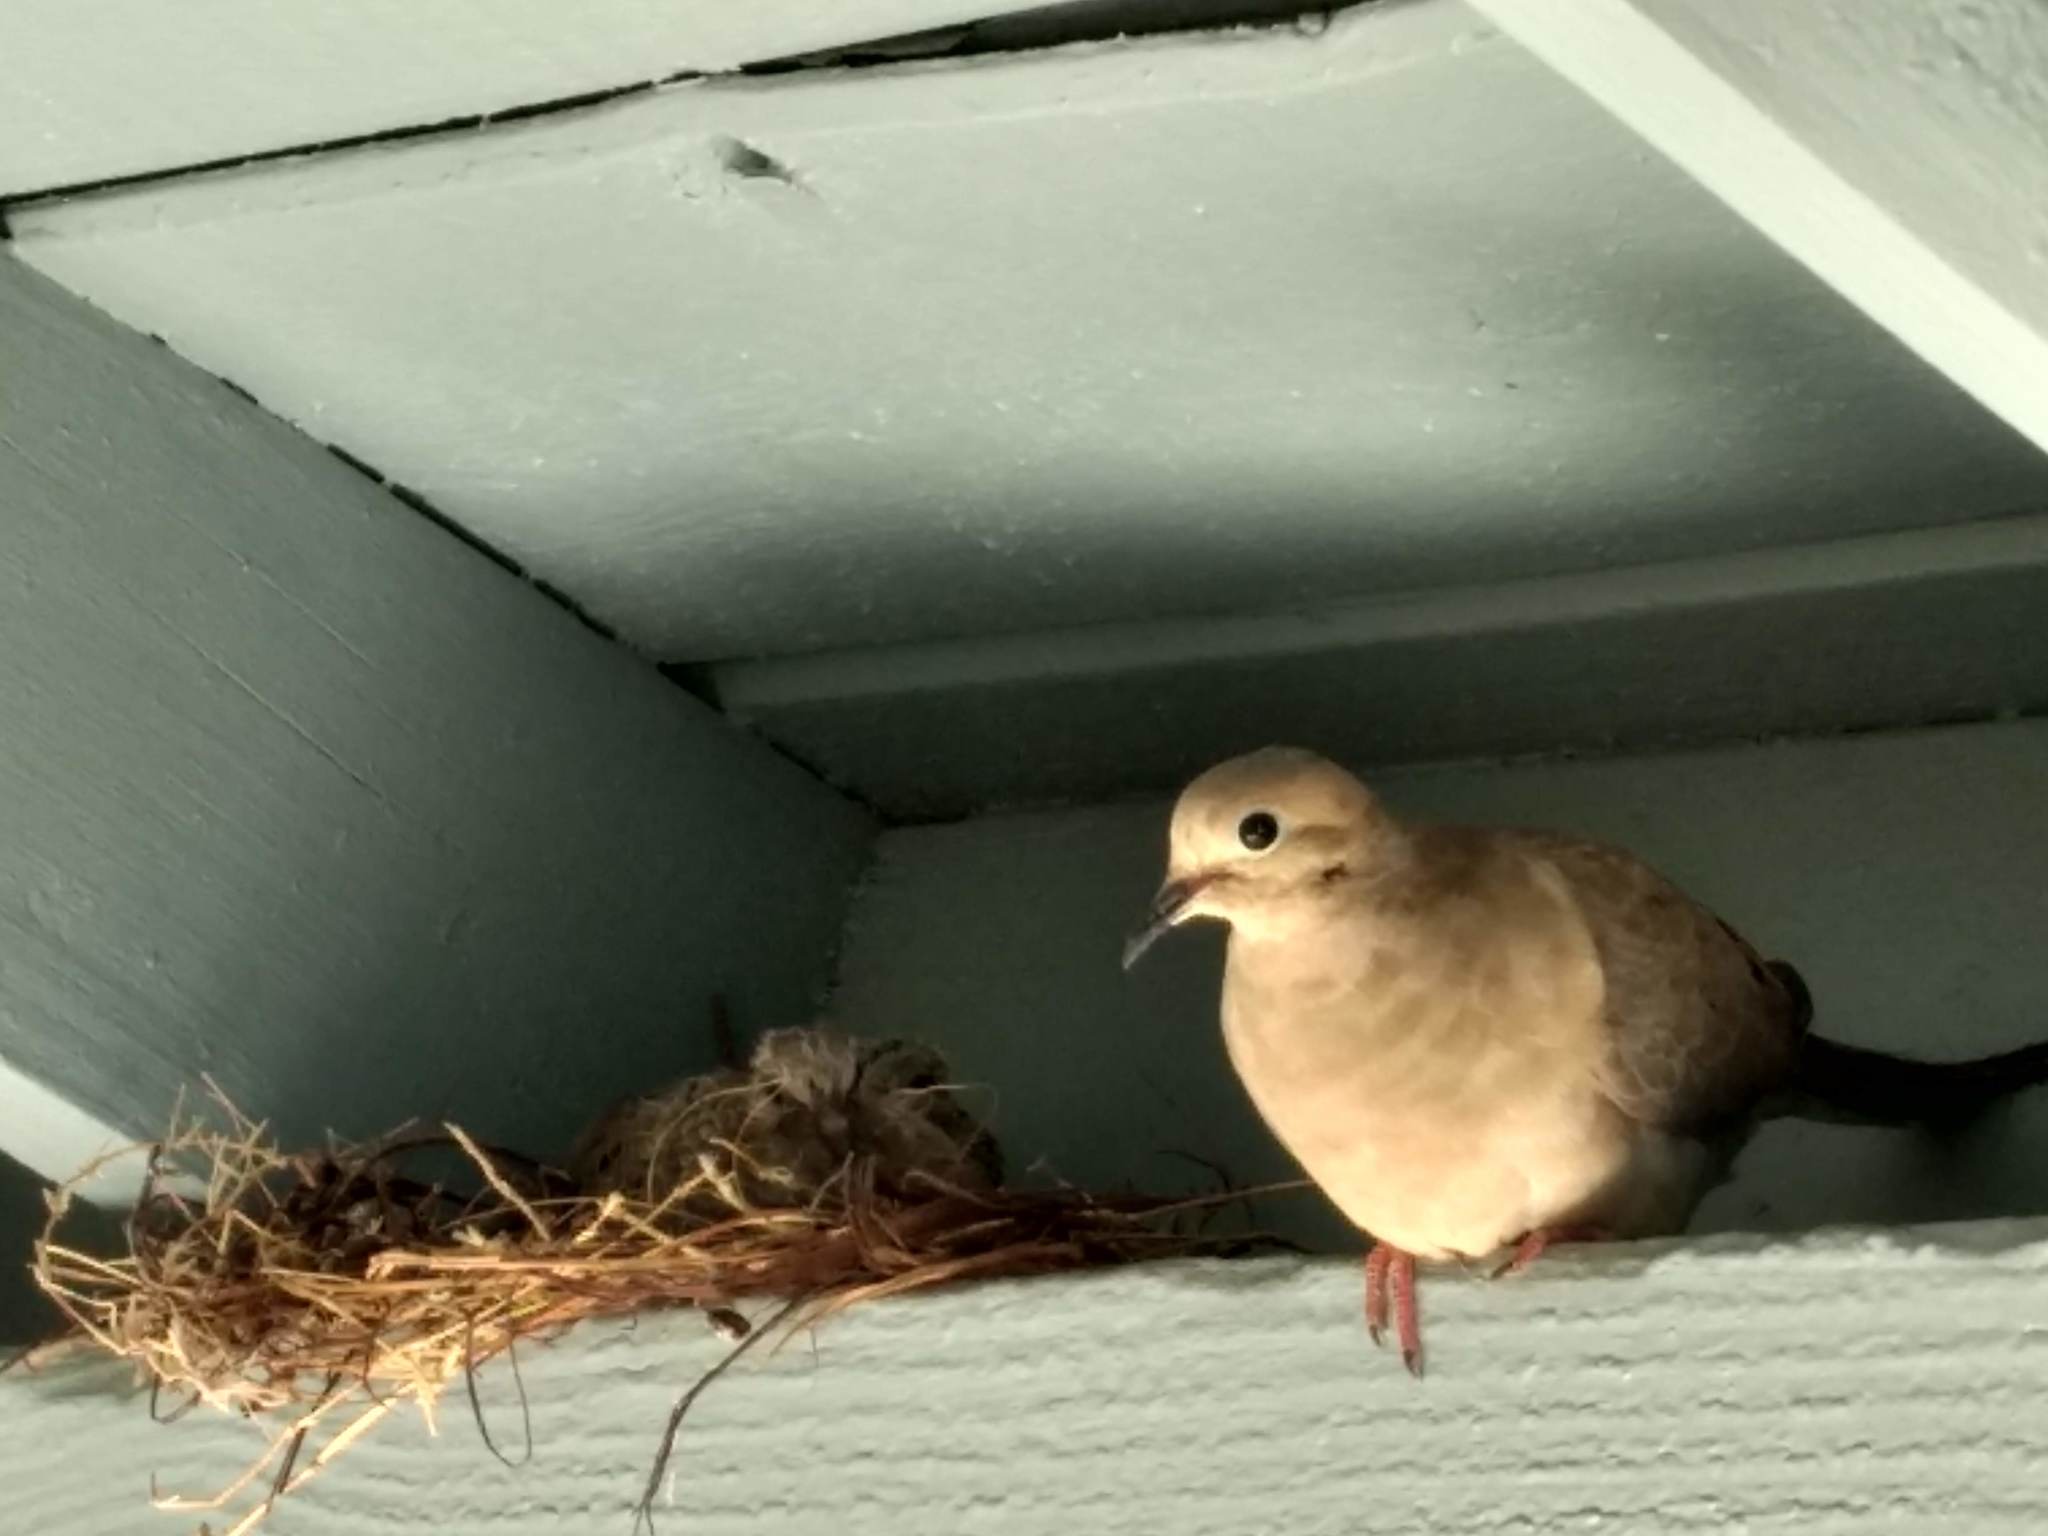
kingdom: Animalia
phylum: Chordata
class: Aves
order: Columbiformes
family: Columbidae
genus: Zenaida
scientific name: Zenaida macroura
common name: Mourning dove
